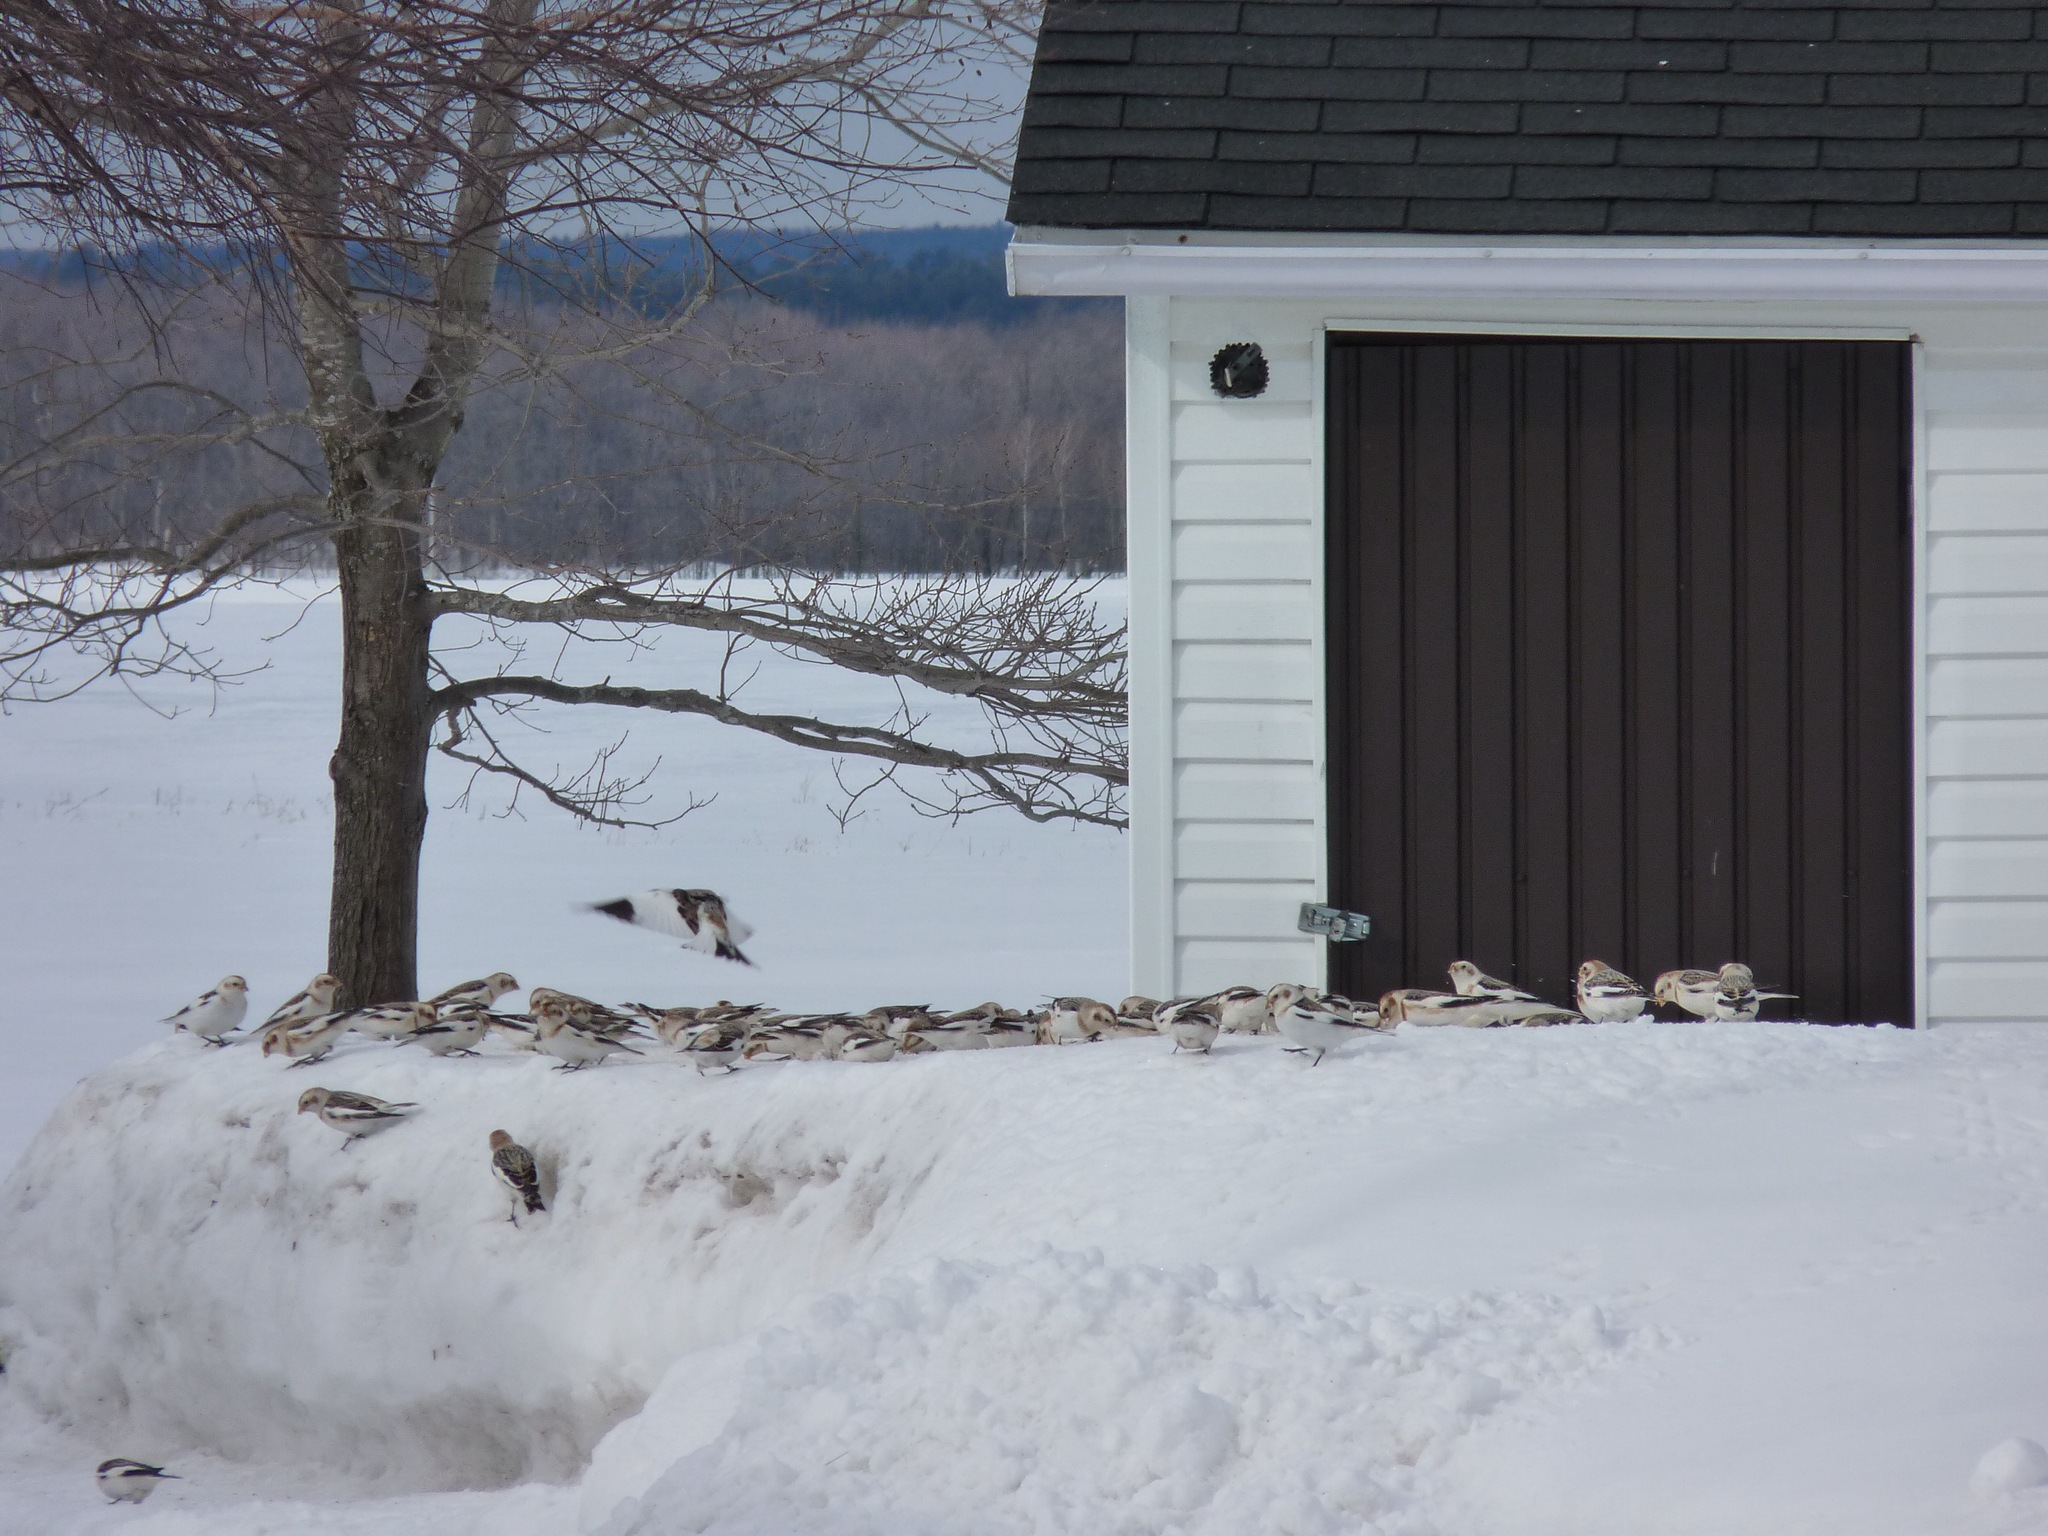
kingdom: Animalia
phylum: Chordata
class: Aves
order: Passeriformes
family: Calcariidae
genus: Plectrophenax
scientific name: Plectrophenax nivalis
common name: Snow bunting
